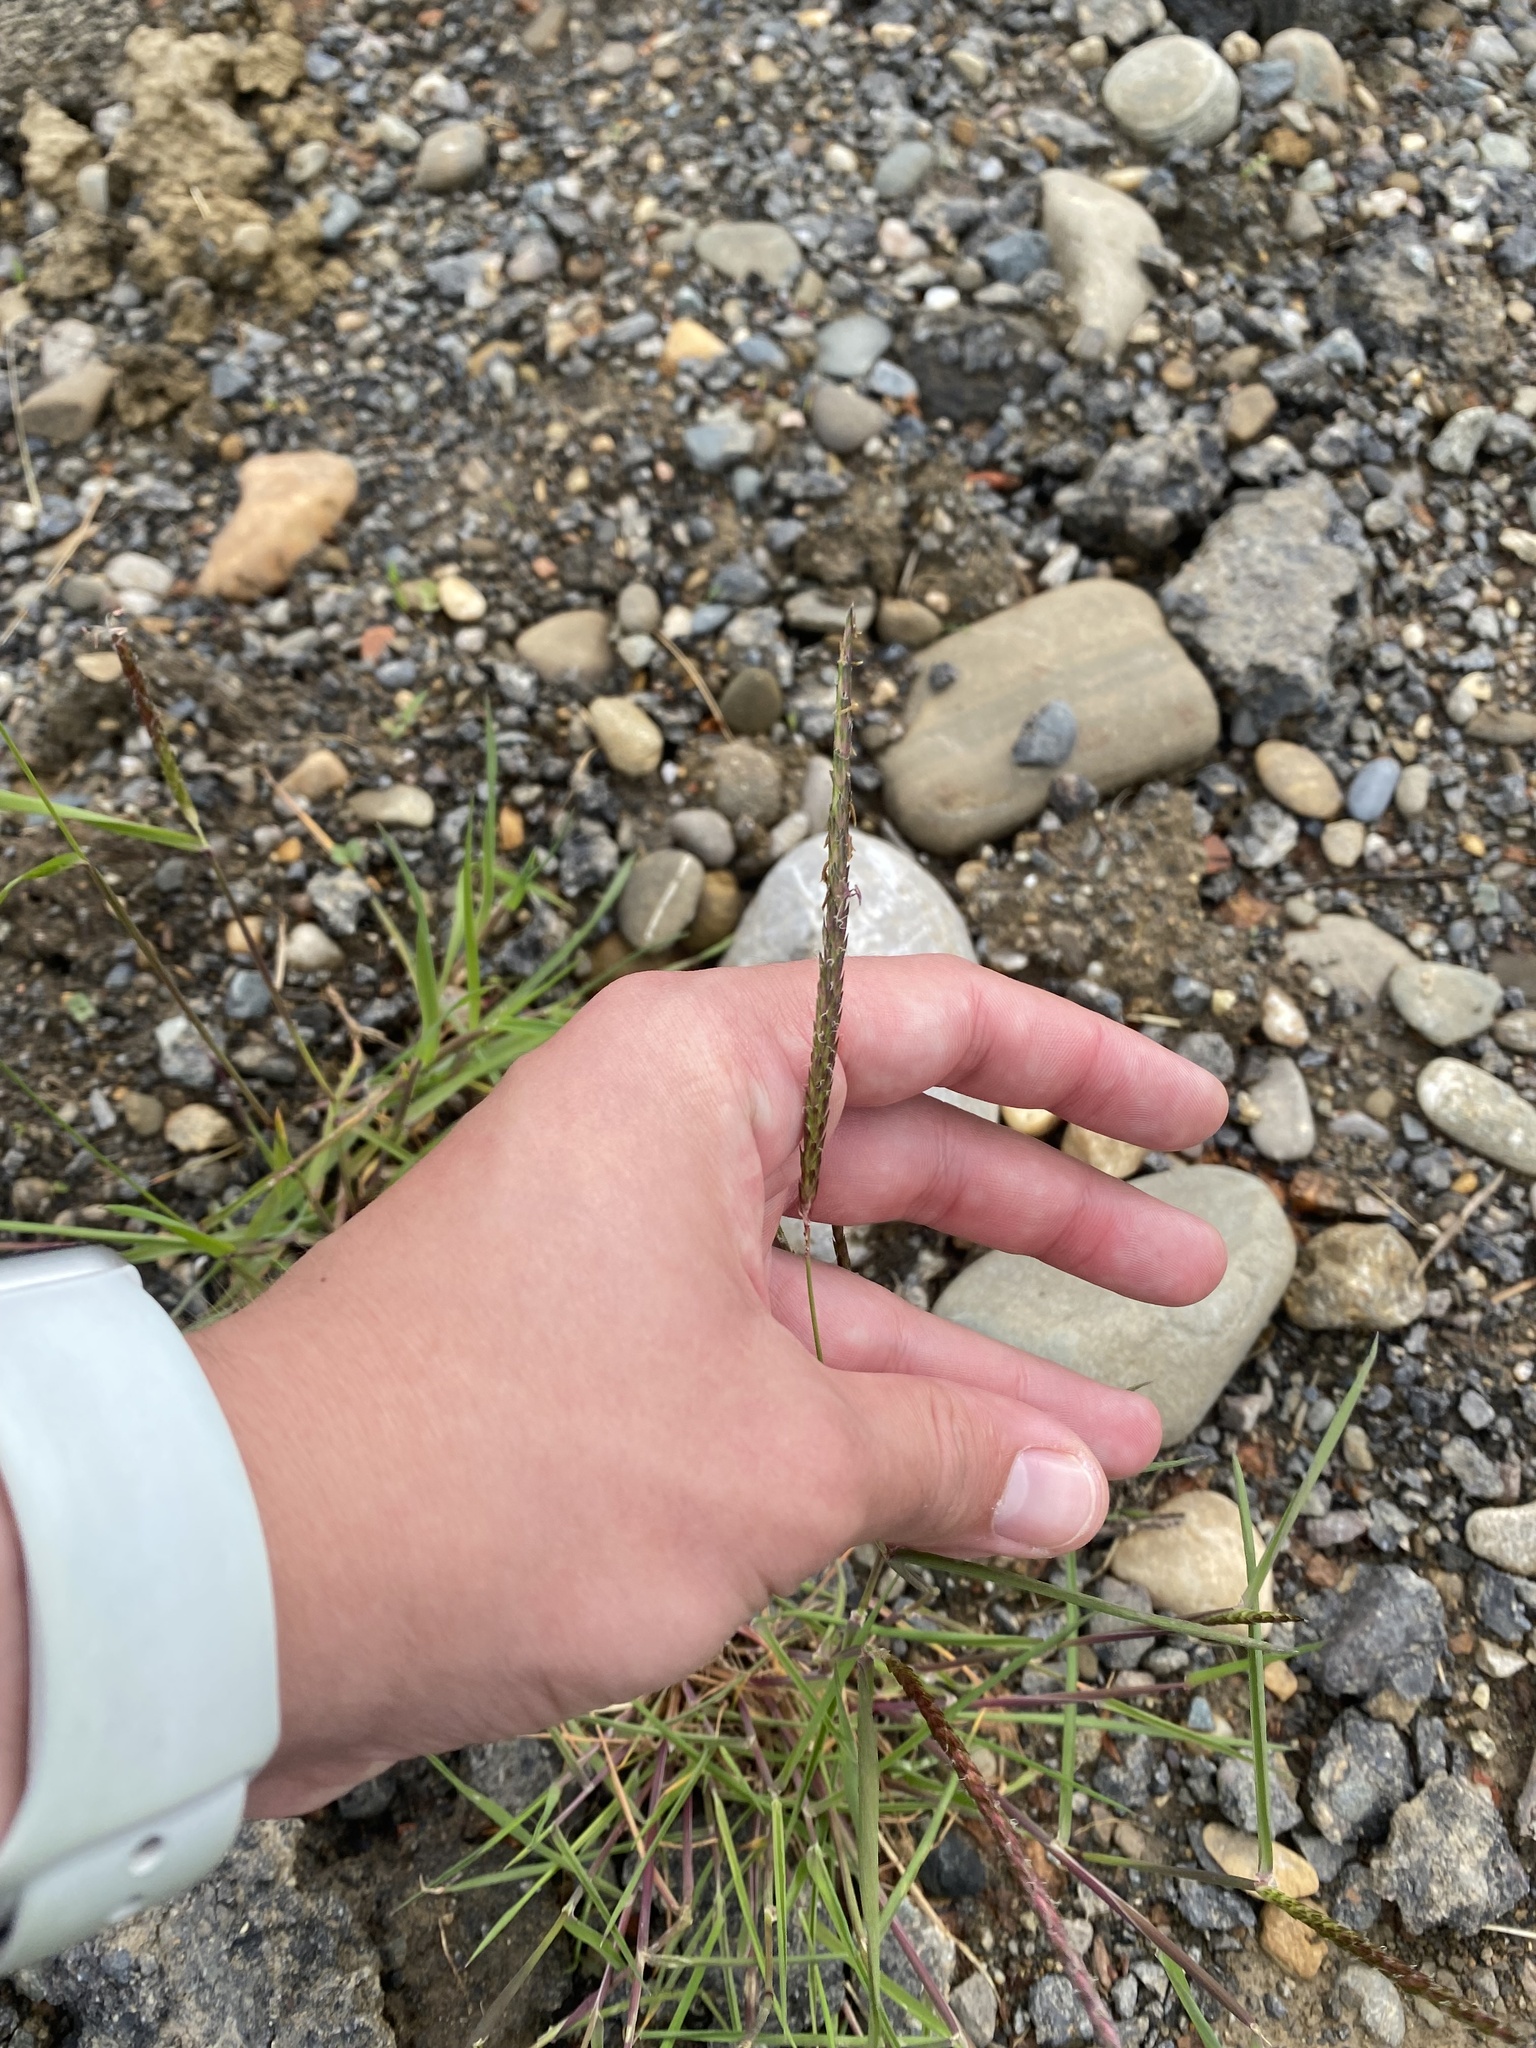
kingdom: Plantae
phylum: Tracheophyta
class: Liliopsida
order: Poales
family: Poaceae
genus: Alopecurus
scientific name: Alopecurus myosuroides
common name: Black-grass
